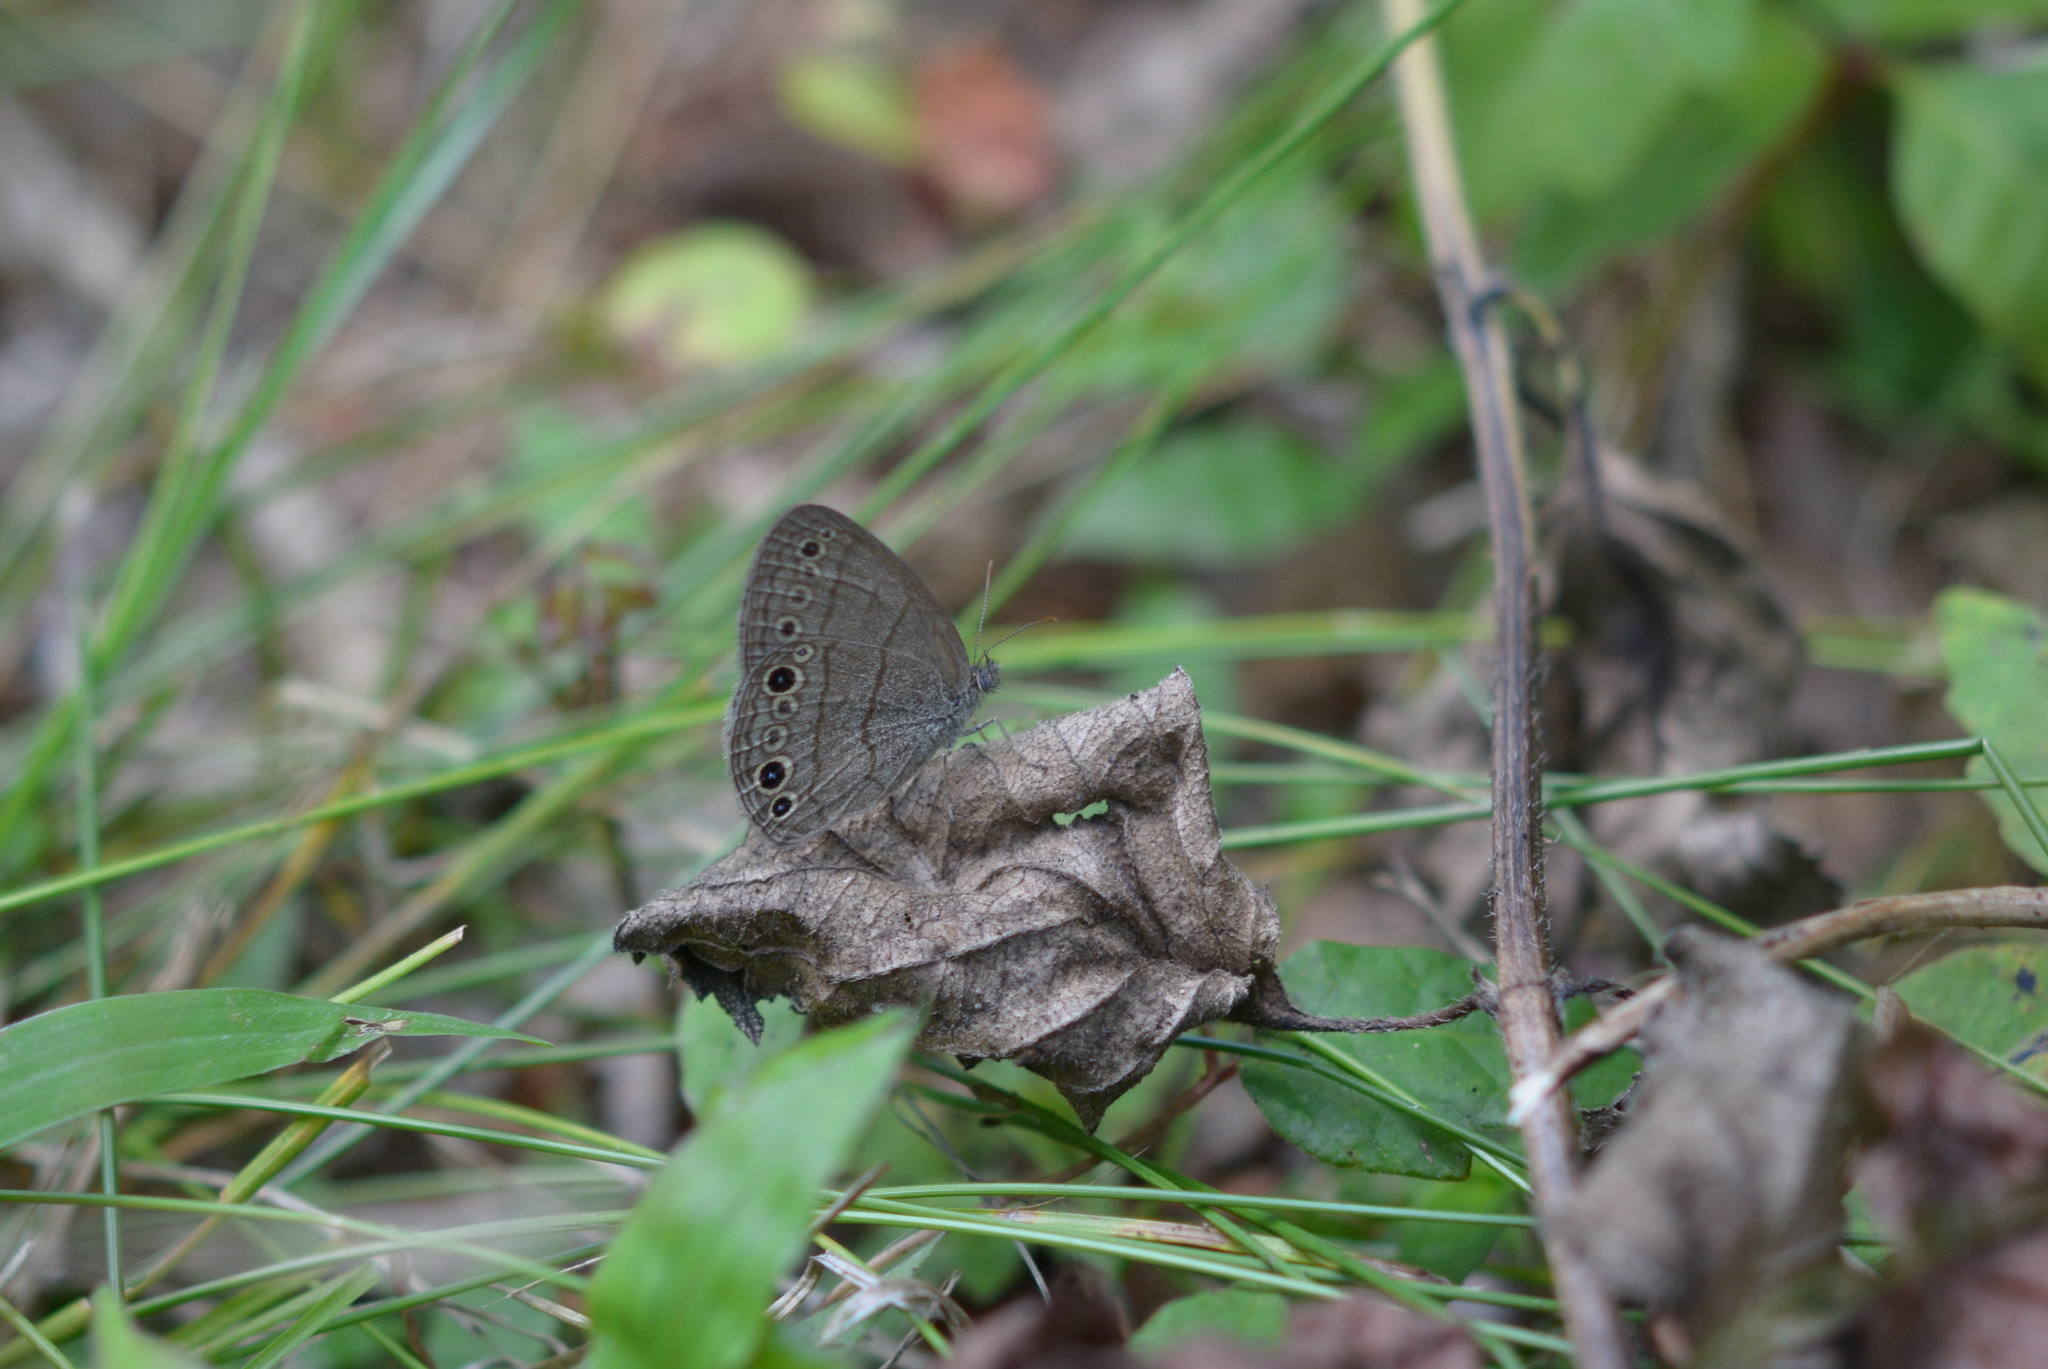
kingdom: Animalia
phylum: Arthropoda
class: Insecta
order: Lepidoptera
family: Nymphalidae
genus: Hermeuptychia
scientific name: Hermeuptychia hermes
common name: Hermes satyr
